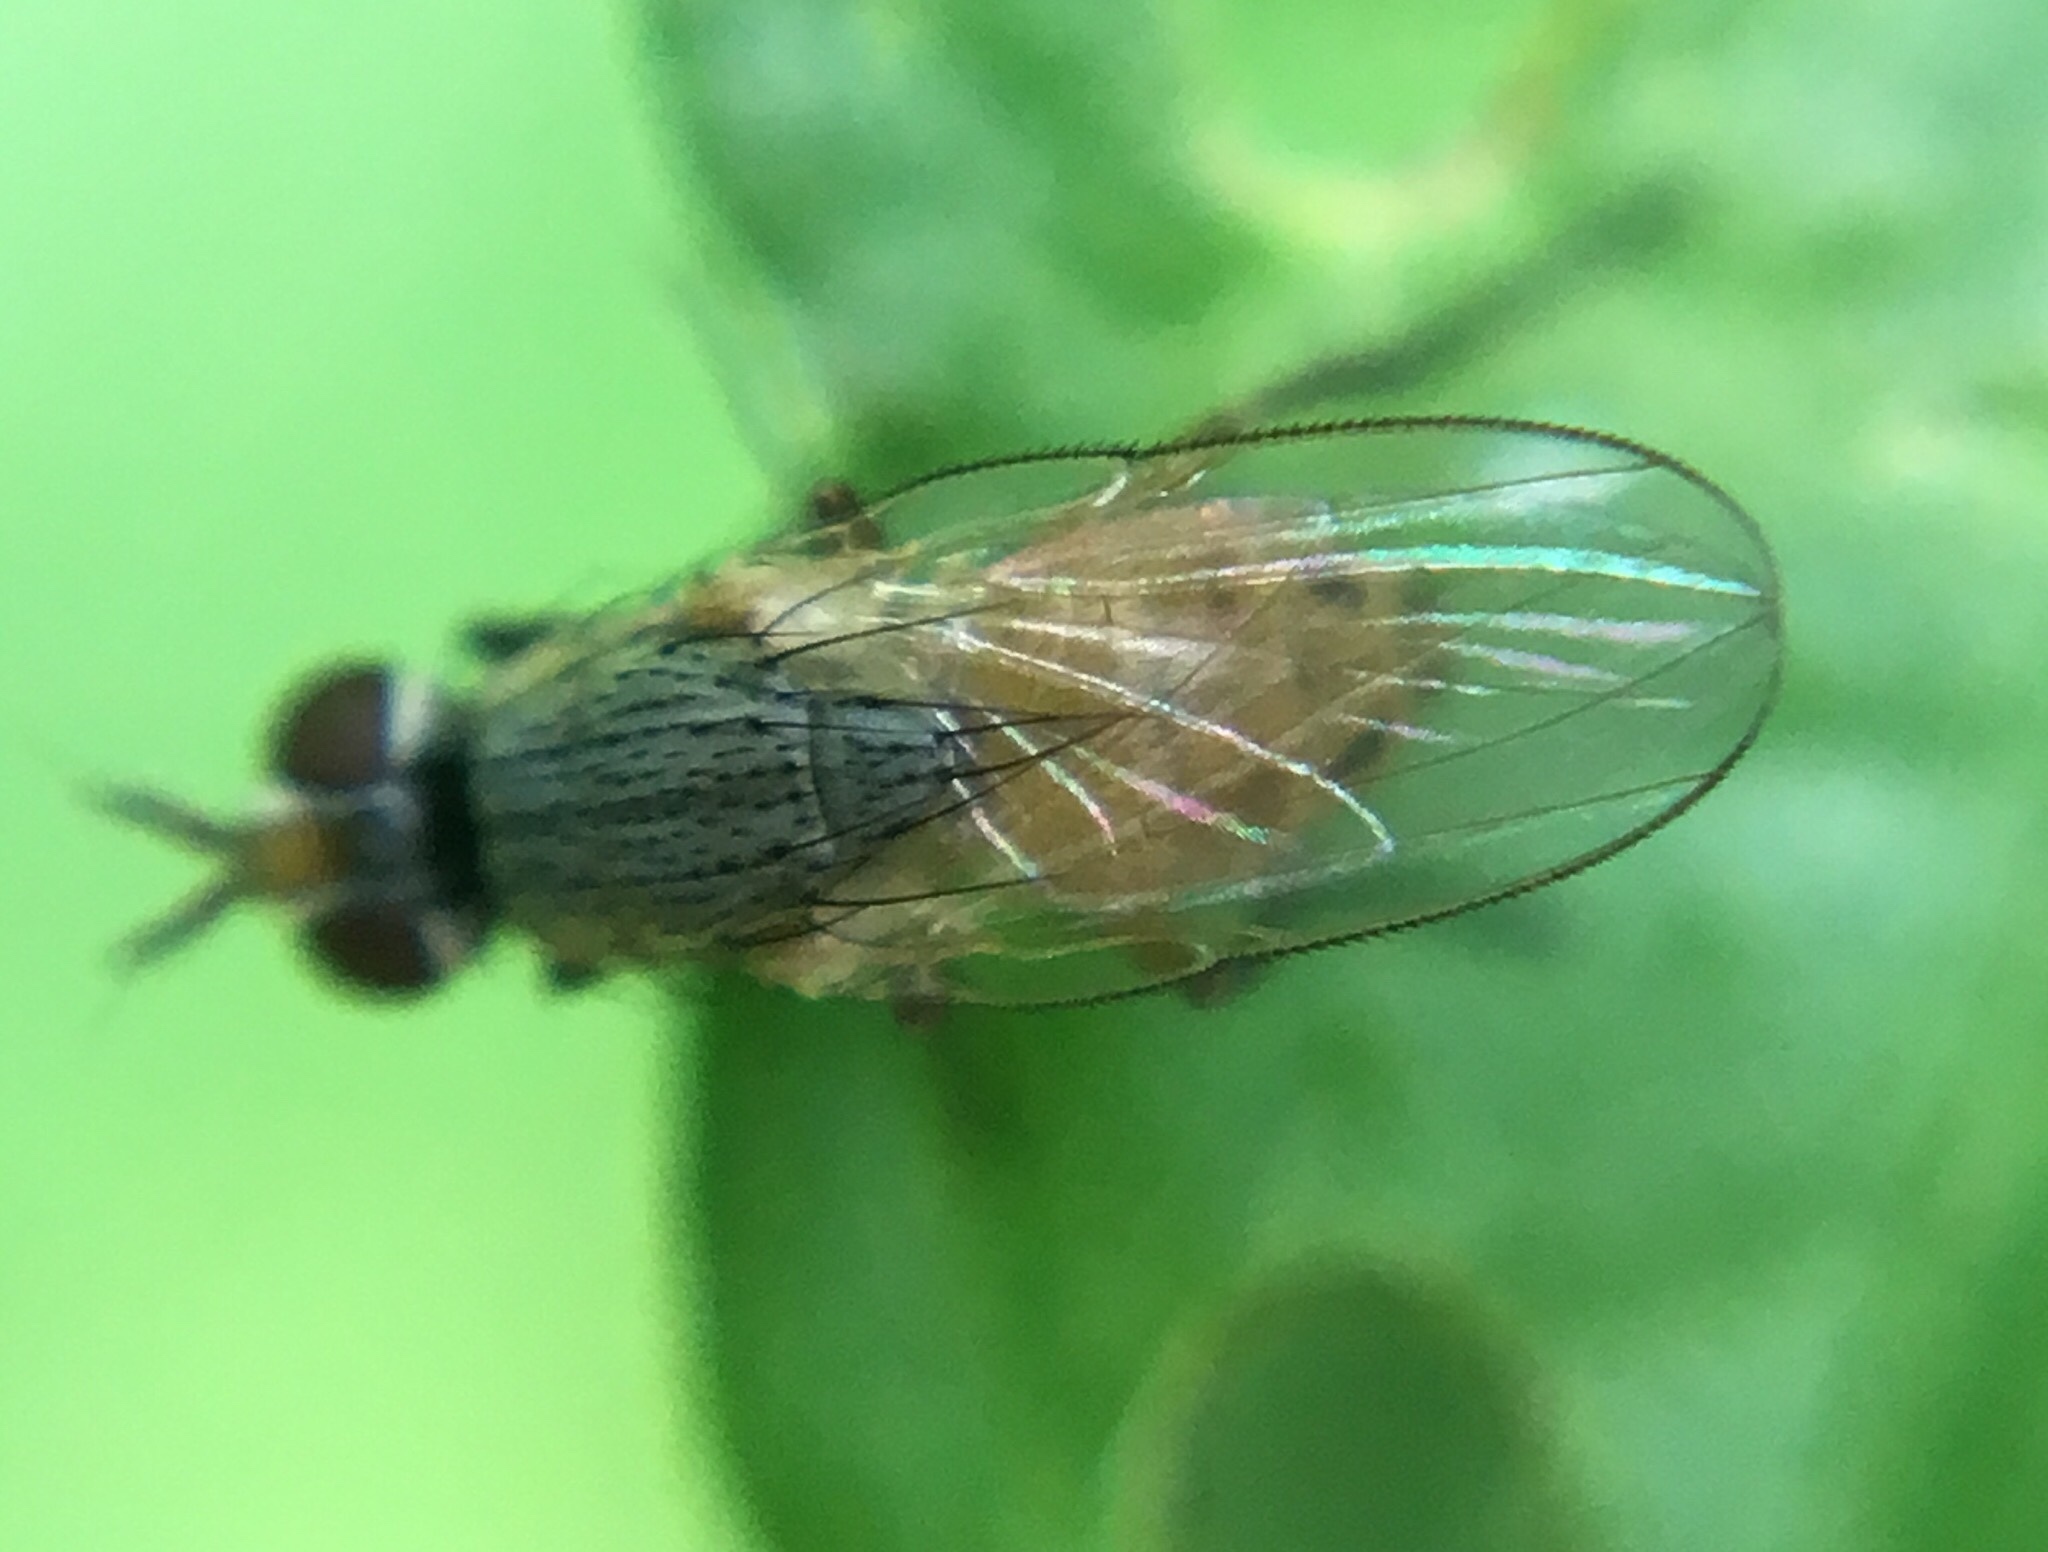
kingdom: Animalia
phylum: Arthropoda
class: Insecta
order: Diptera
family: Muscidae
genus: Atherigona
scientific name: Atherigona reversura
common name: Bermudagrass stem maggot
